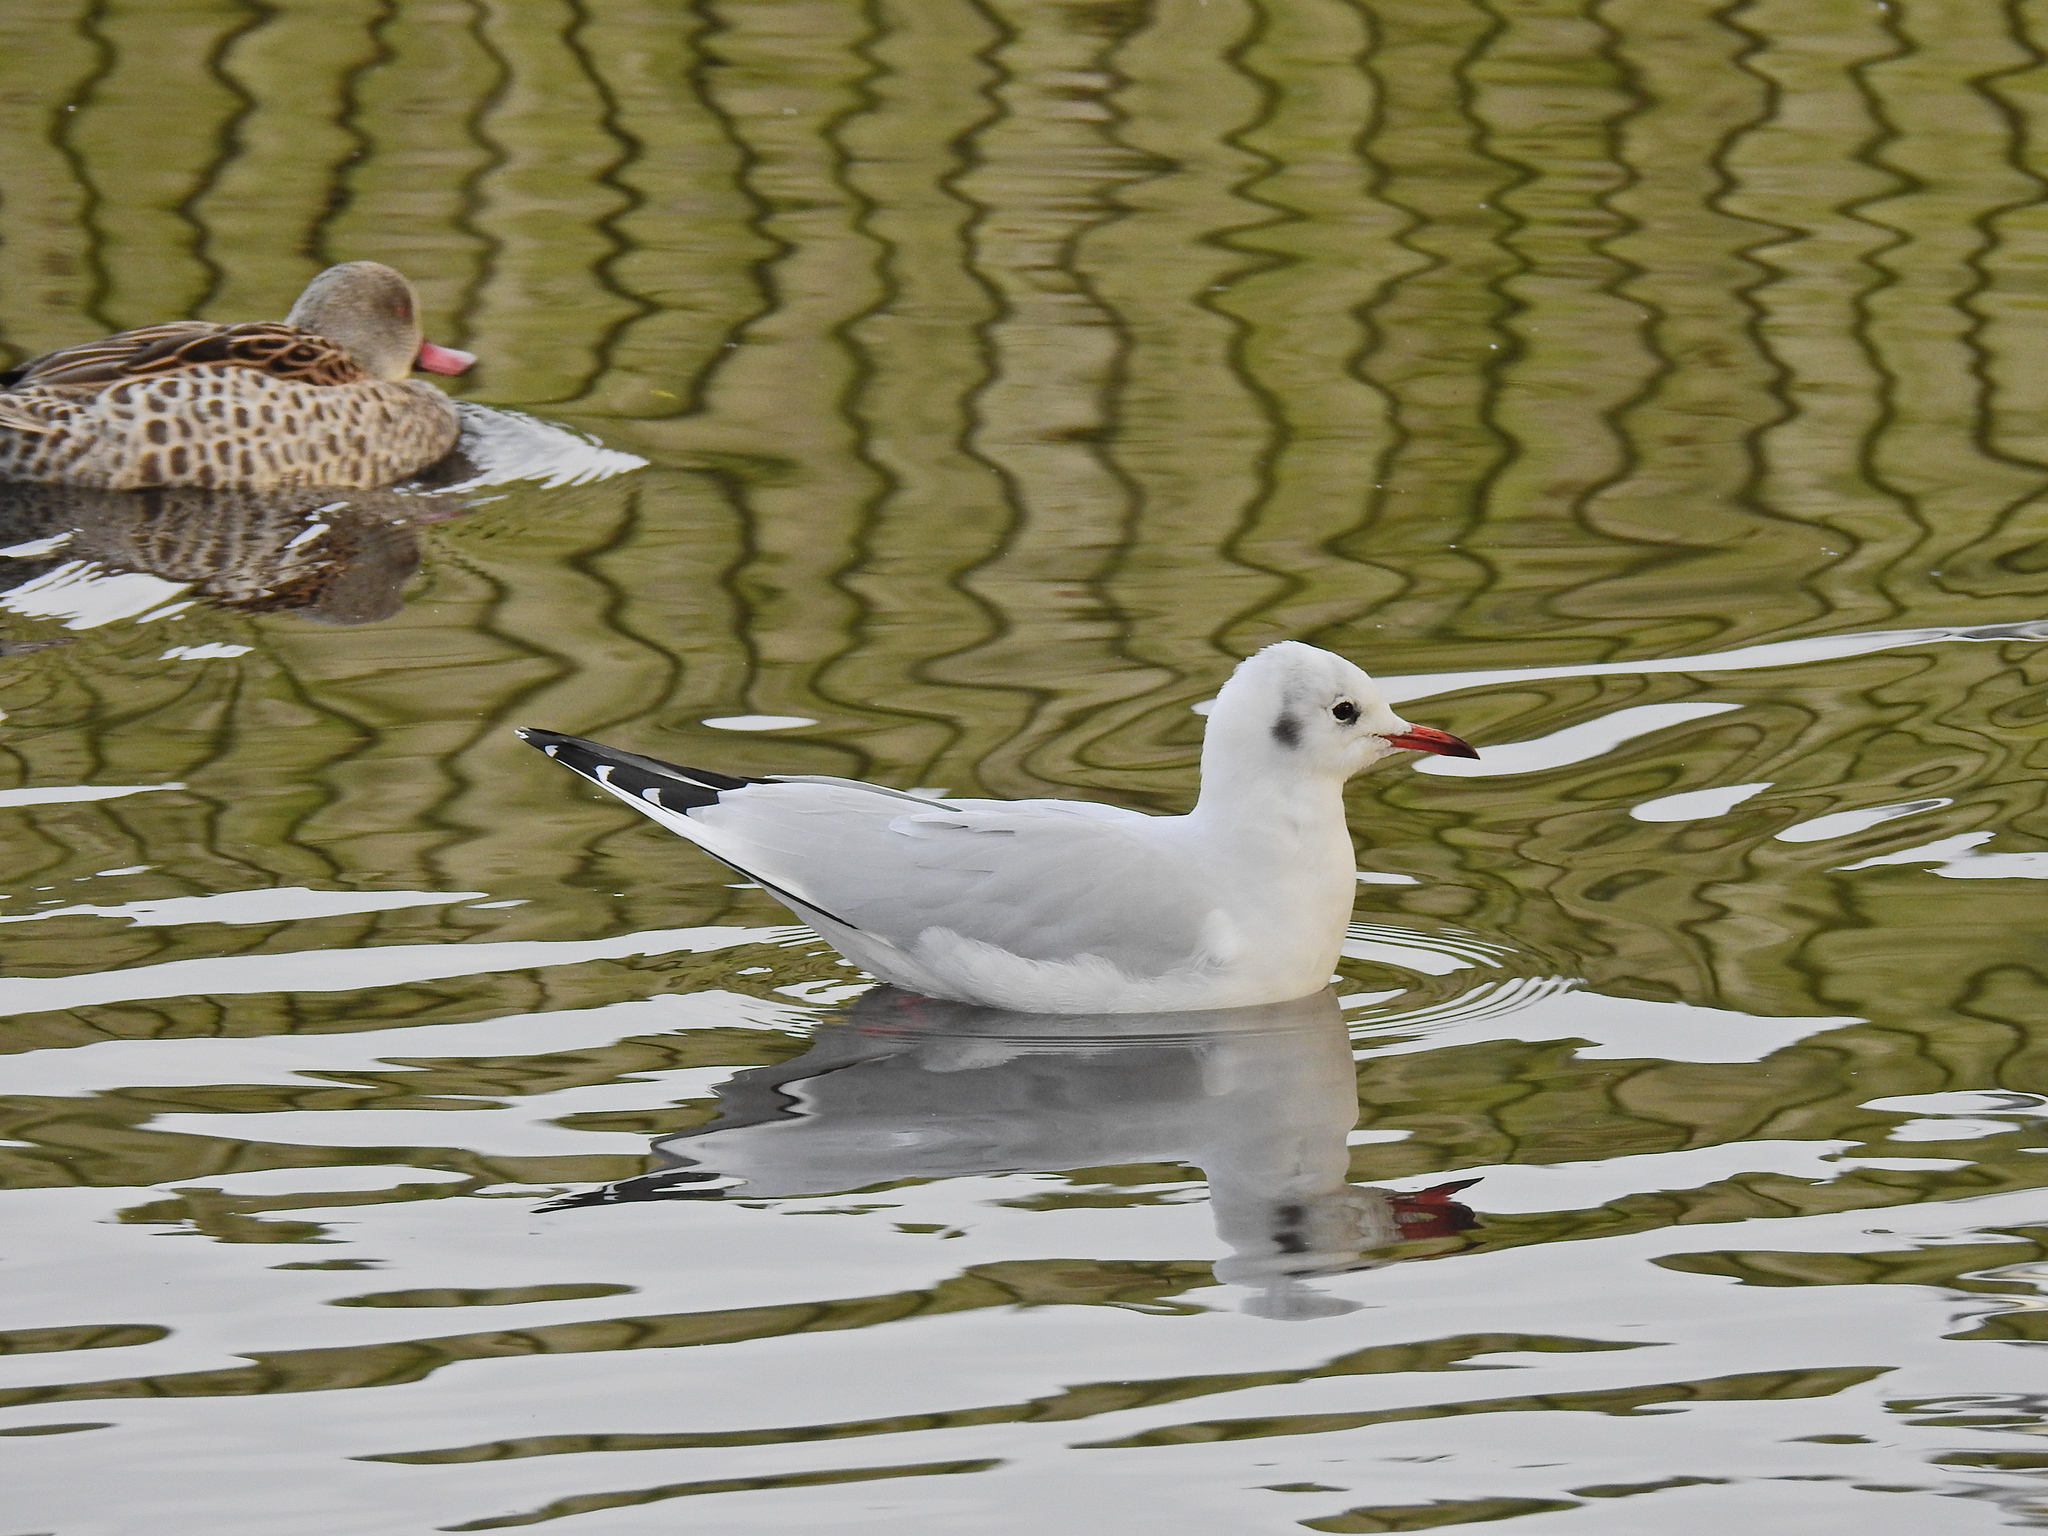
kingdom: Animalia
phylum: Chordata
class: Aves
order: Charadriiformes
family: Laridae
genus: Chroicocephalus
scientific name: Chroicocephalus ridibundus
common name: Black-headed gull
